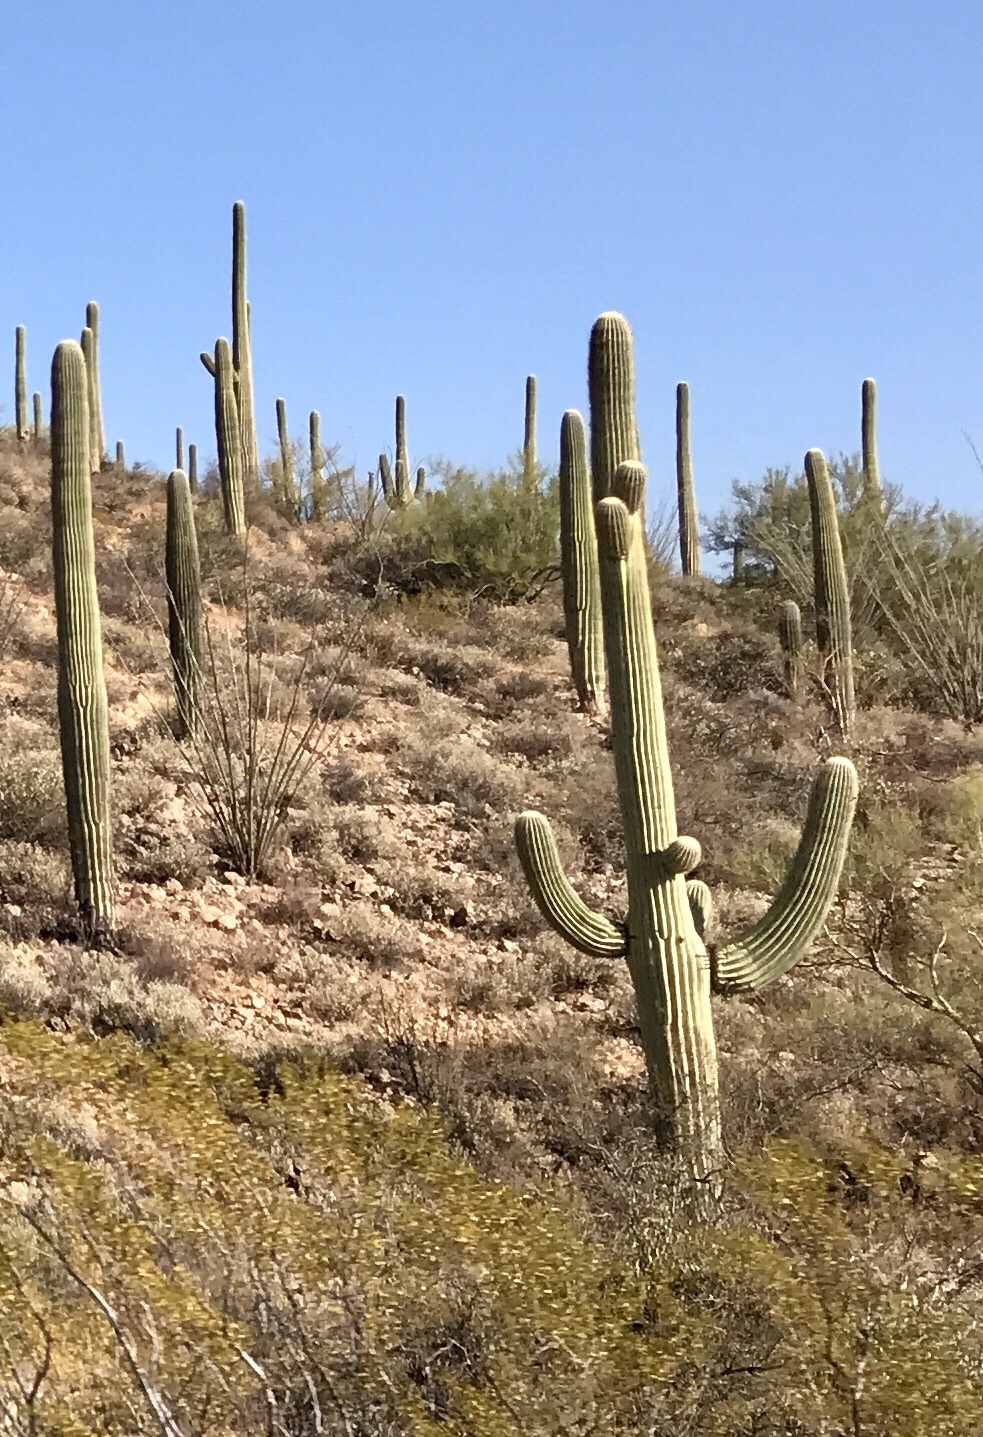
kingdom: Plantae
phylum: Tracheophyta
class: Magnoliopsida
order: Caryophyllales
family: Cactaceae
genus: Carnegiea
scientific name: Carnegiea gigantea
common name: Saguaro
